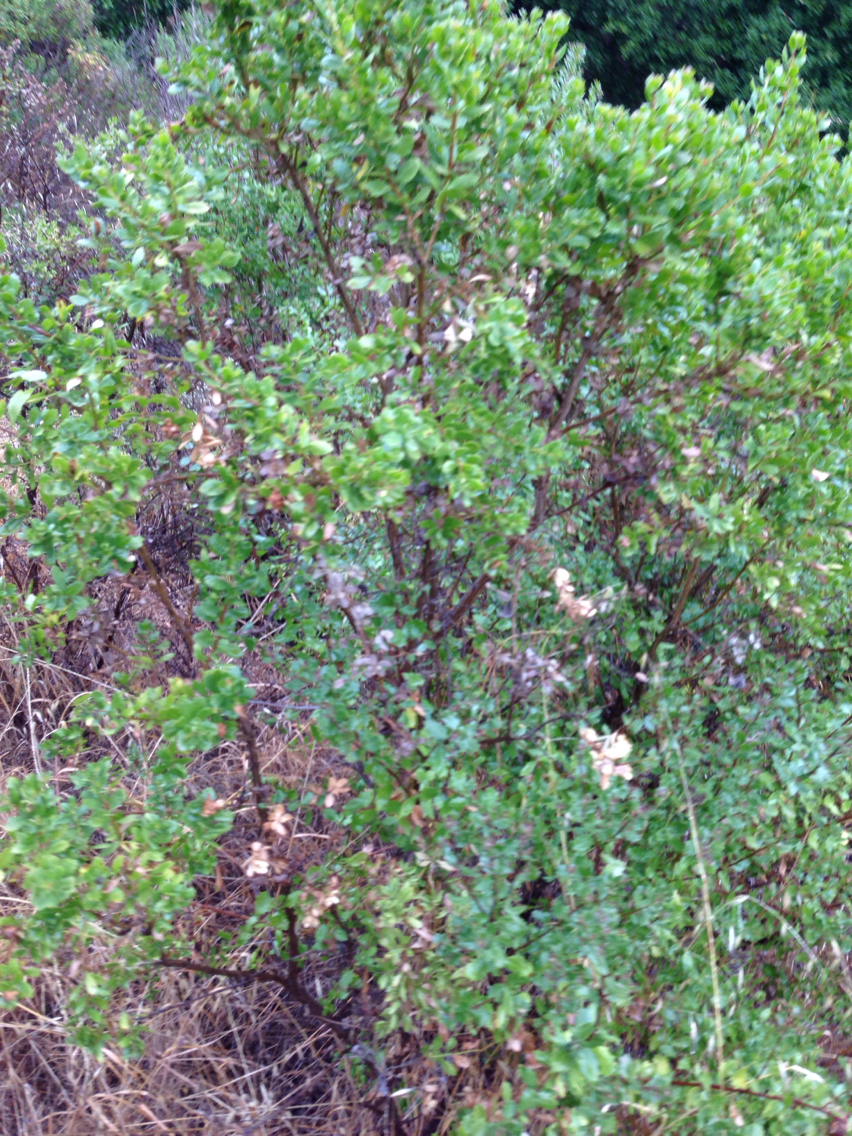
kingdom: Plantae
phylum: Tracheophyta
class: Magnoliopsida
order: Asterales
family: Asteraceae
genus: Baccharis
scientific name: Baccharis pilularis
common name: Coyotebrush
